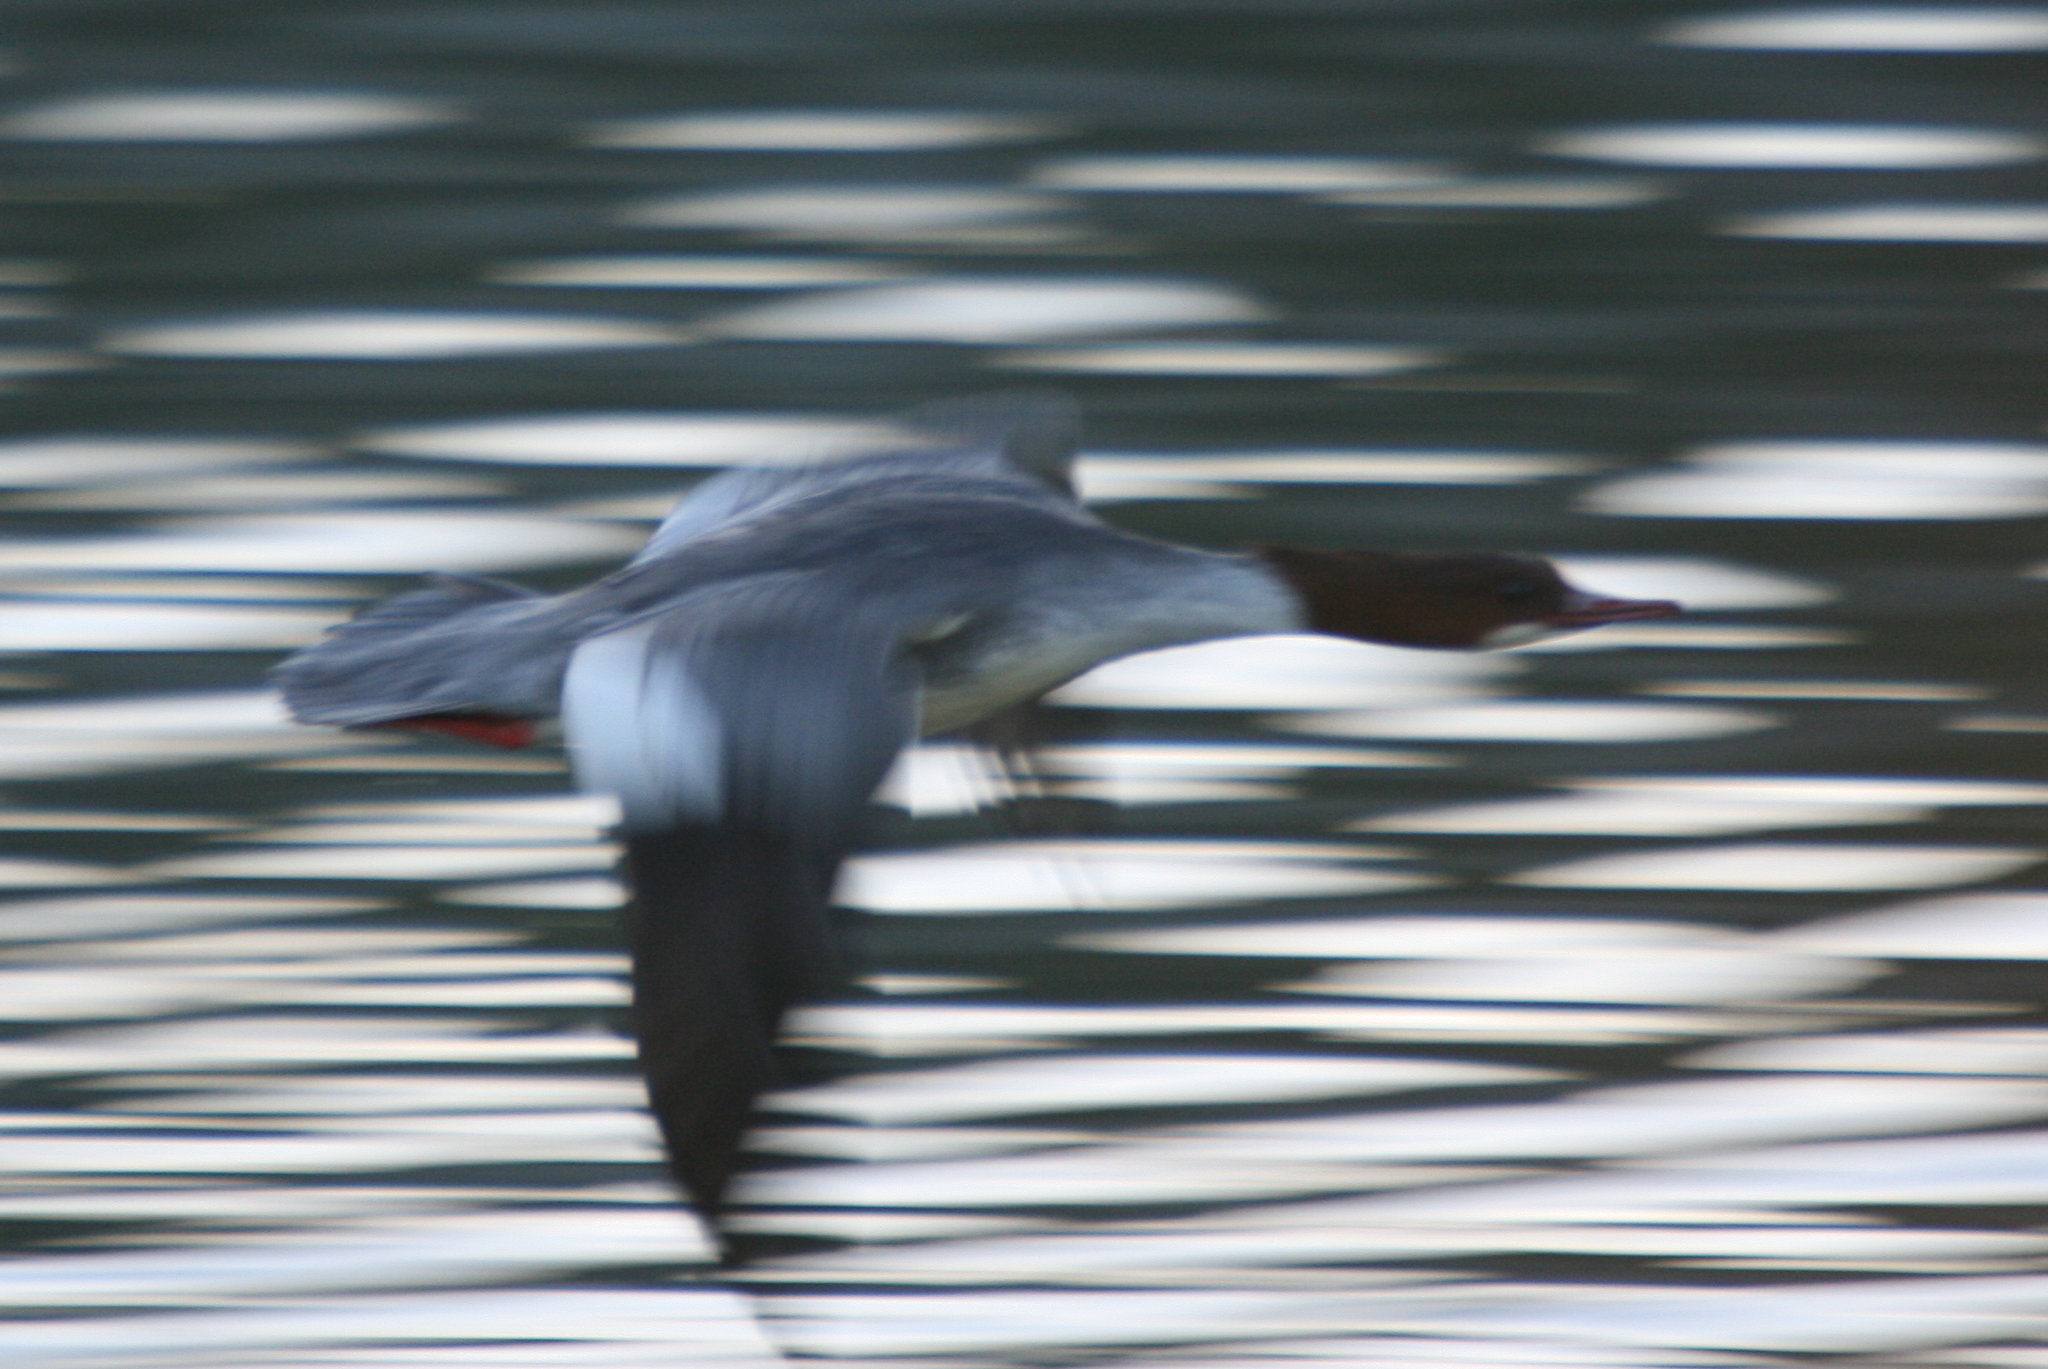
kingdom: Animalia
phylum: Chordata
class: Aves
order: Anseriformes
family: Anatidae
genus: Mergus
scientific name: Mergus merganser
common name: Common merganser
